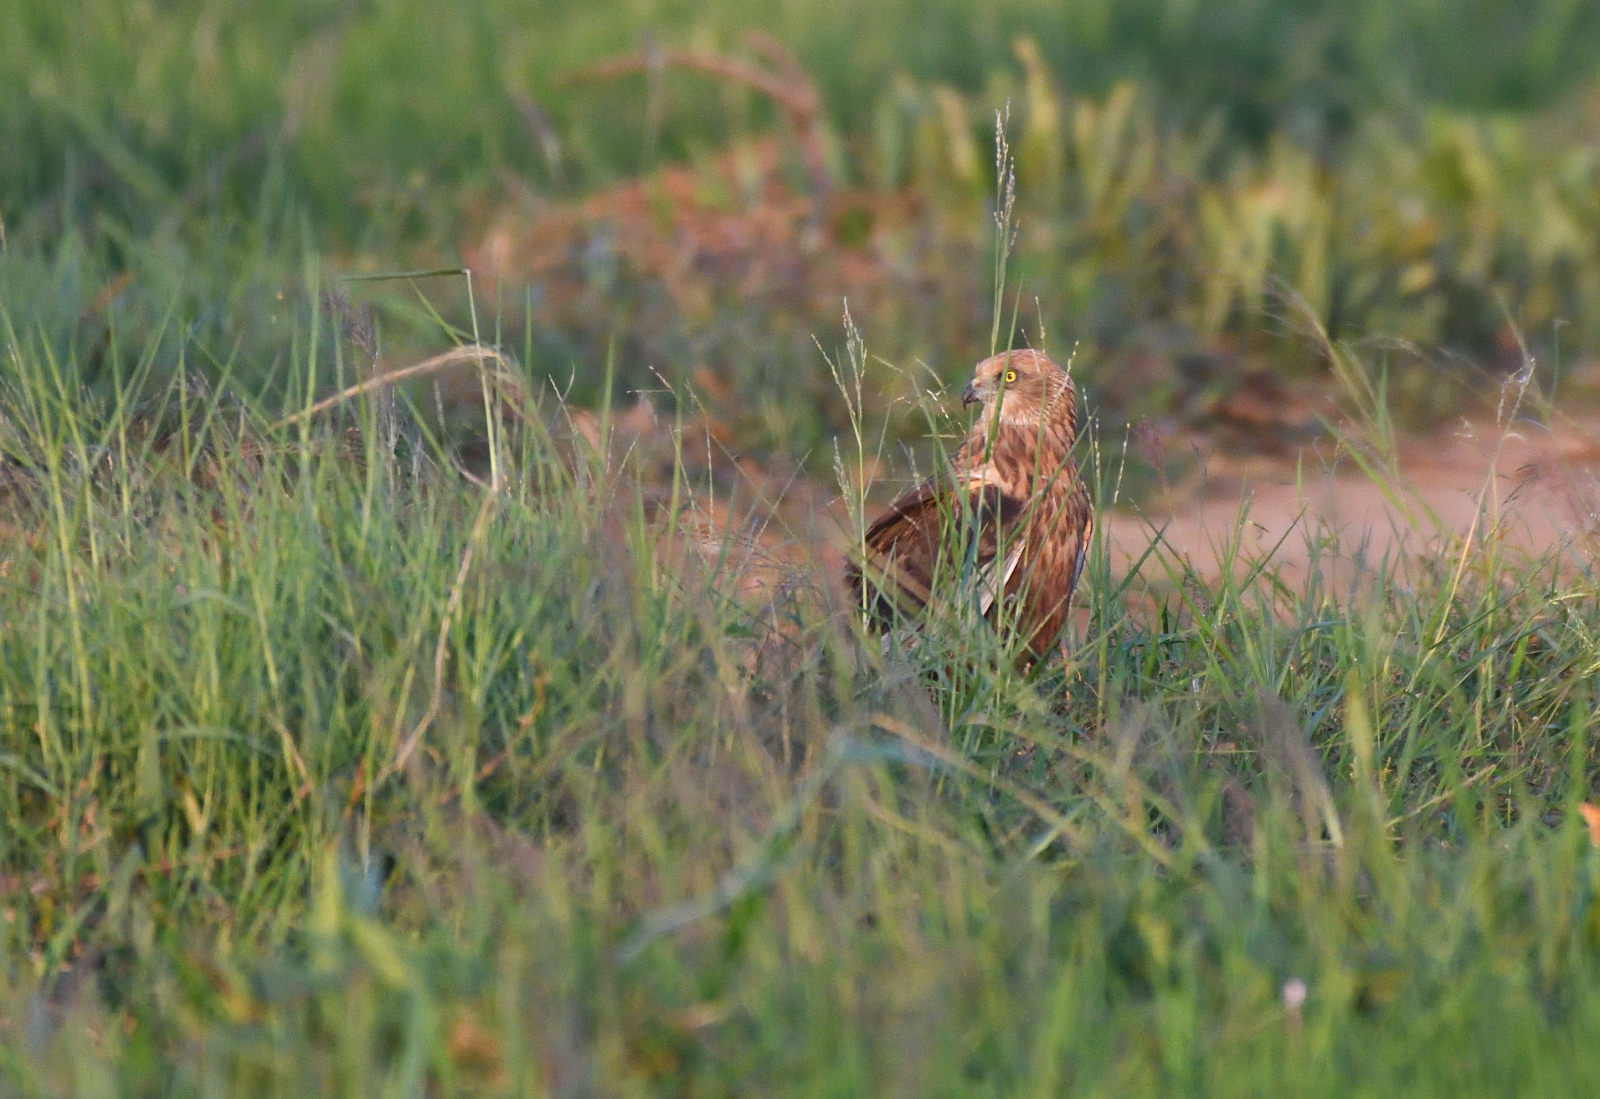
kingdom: Animalia
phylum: Chordata
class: Aves
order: Accipitriformes
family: Accipitridae
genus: Circus
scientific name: Circus aeruginosus
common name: Western marsh harrier
